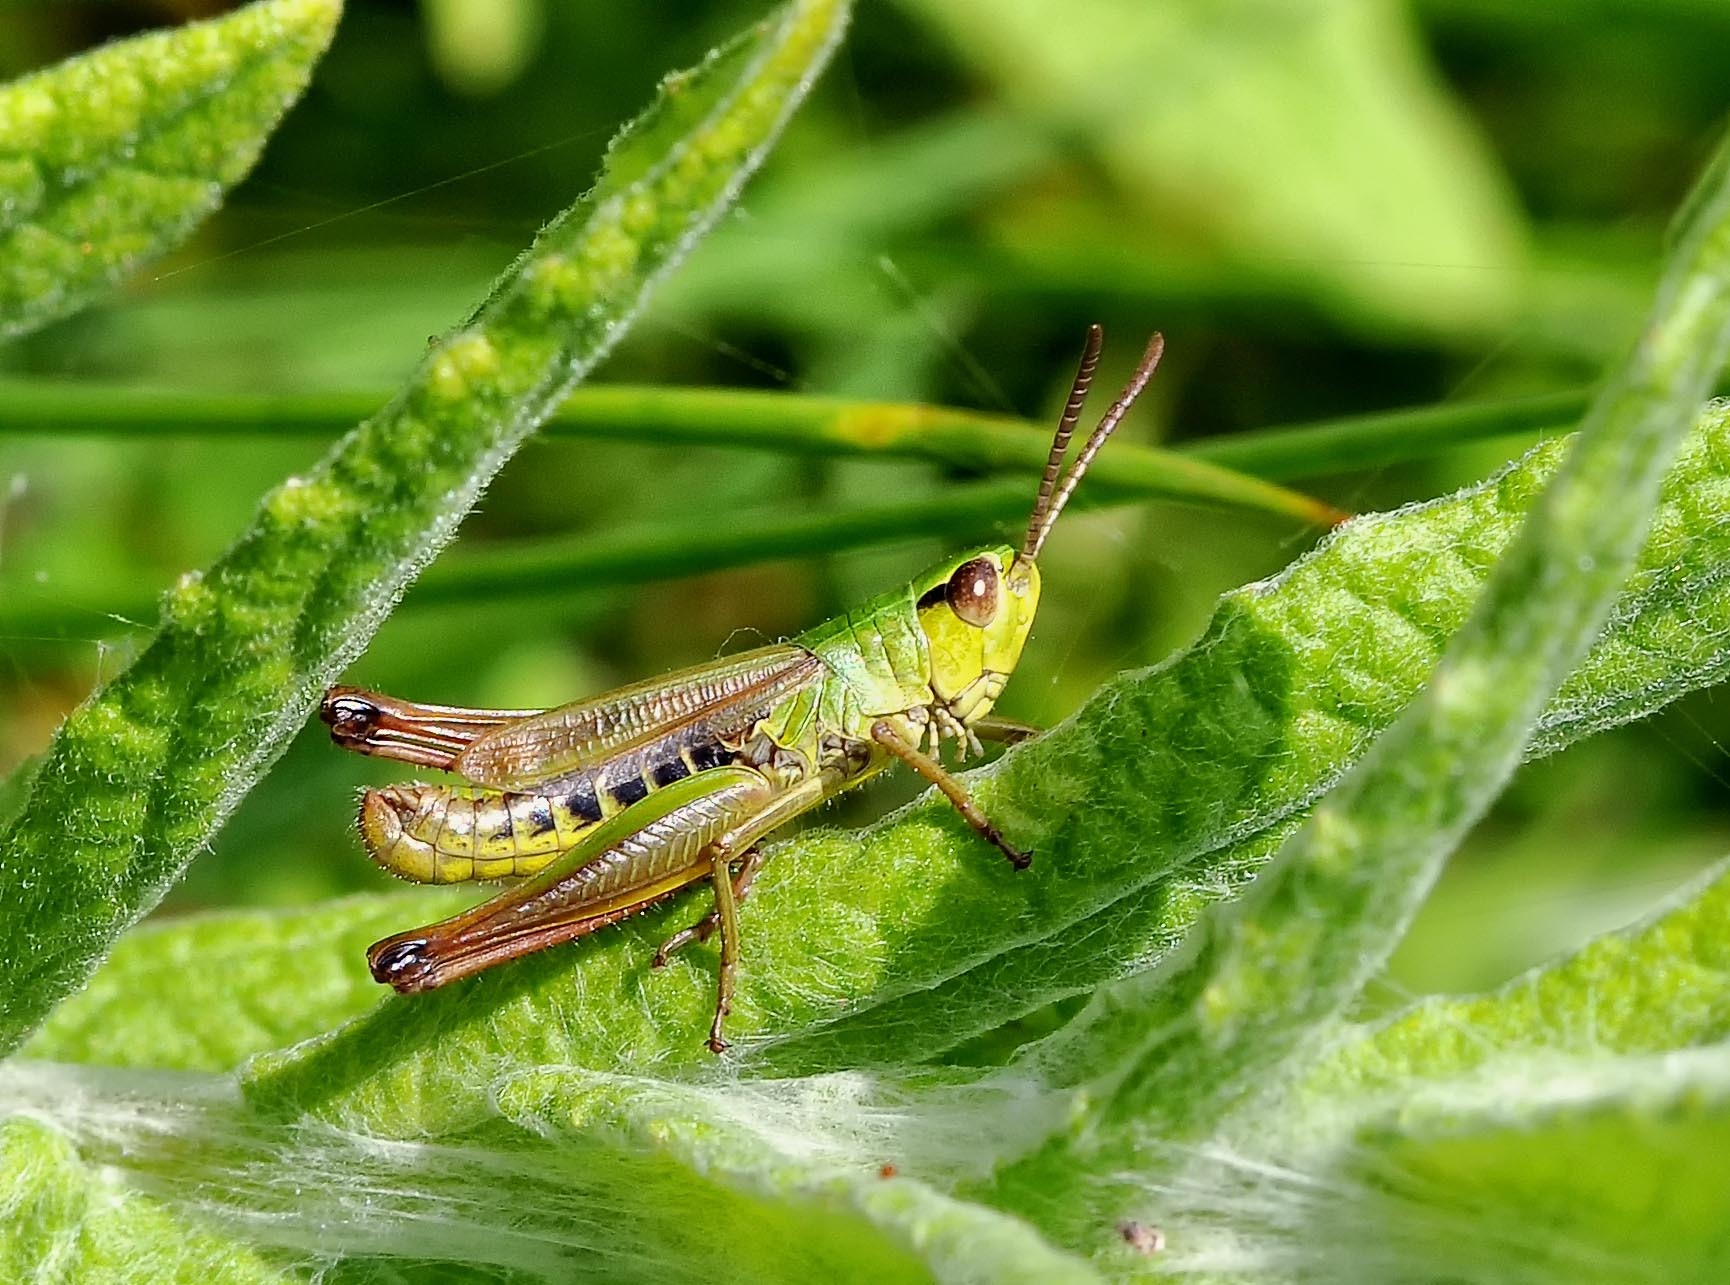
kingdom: Animalia
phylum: Arthropoda
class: Insecta
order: Orthoptera
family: Acrididae
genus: Pseudochorthippus
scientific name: Pseudochorthippus parallelus
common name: Meadow grasshopper
